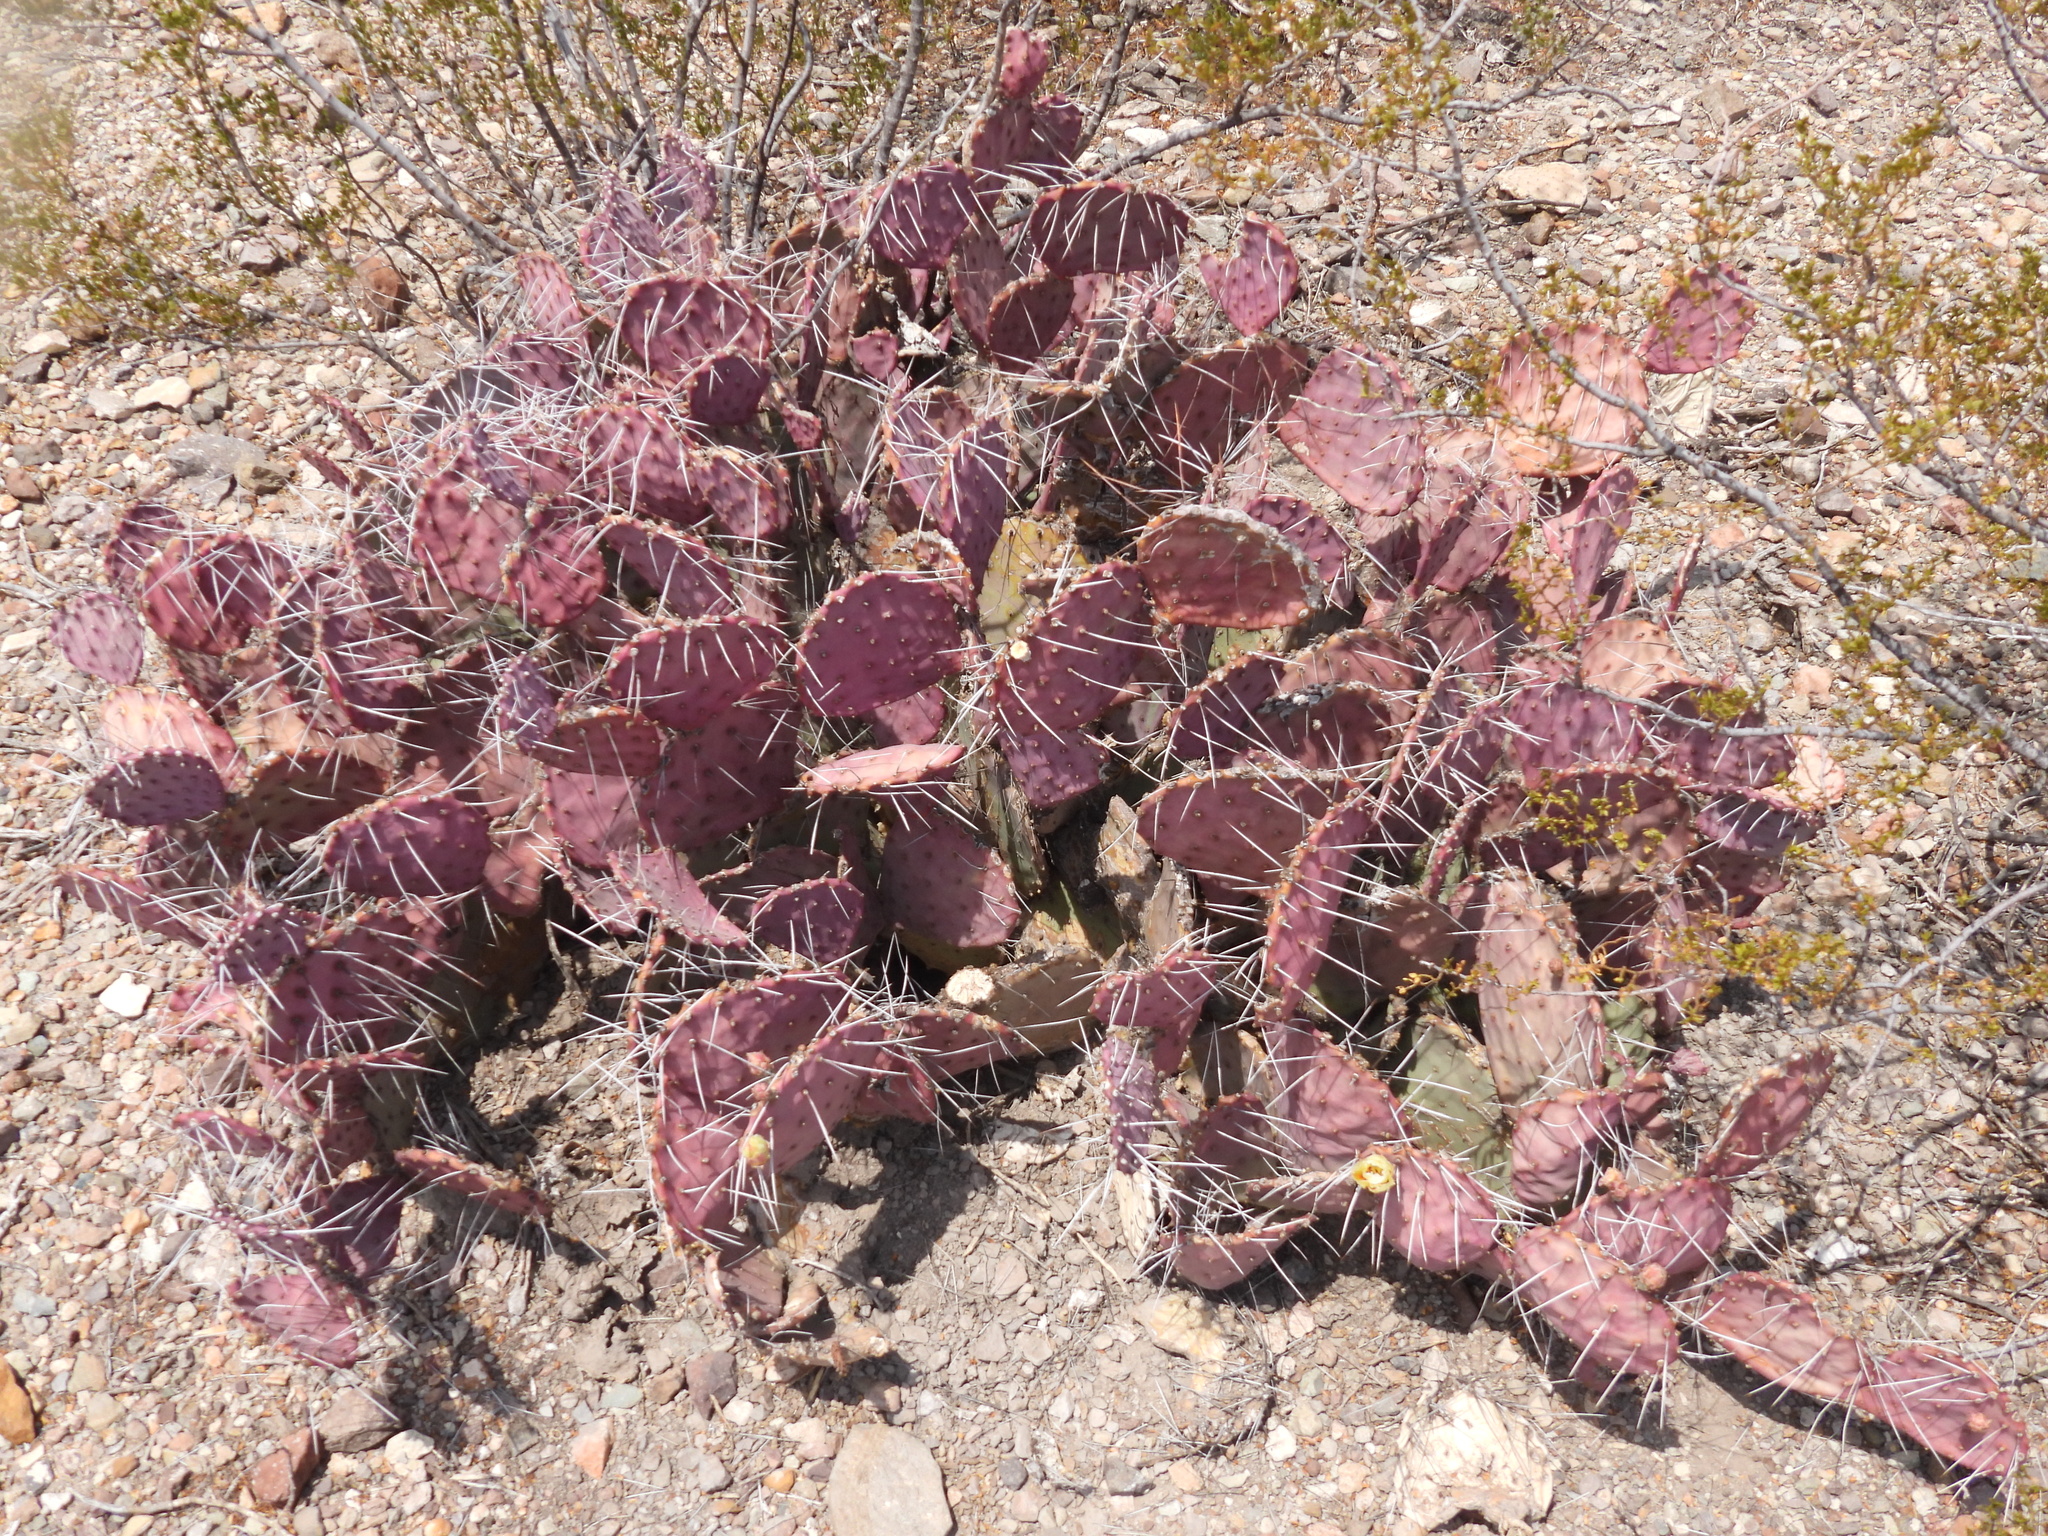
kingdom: Plantae
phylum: Tracheophyta
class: Magnoliopsida
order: Caryophyllales
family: Cactaceae
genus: Opuntia
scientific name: Opuntia phaeacantha
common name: New mexico prickly-pear
